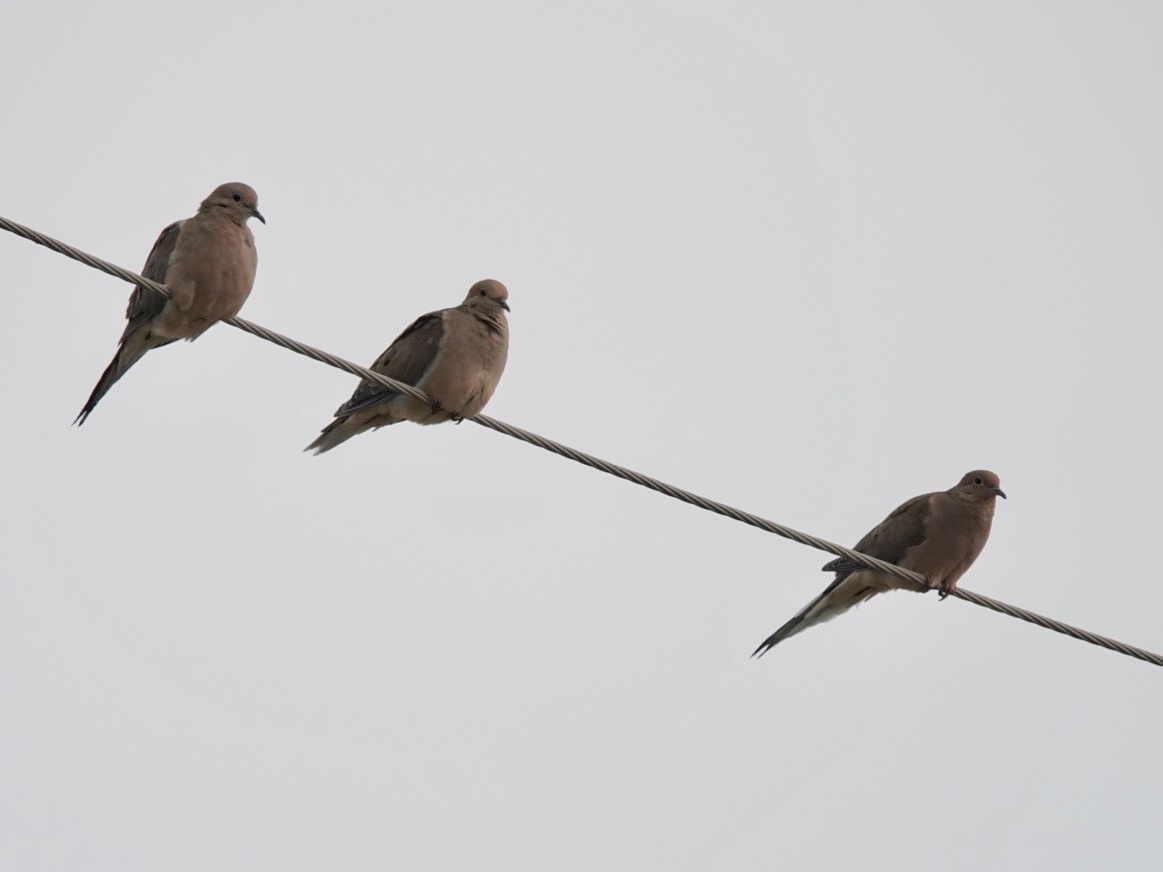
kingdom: Animalia
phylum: Chordata
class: Aves
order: Columbiformes
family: Columbidae
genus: Zenaida
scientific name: Zenaida macroura
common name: Mourning dove
